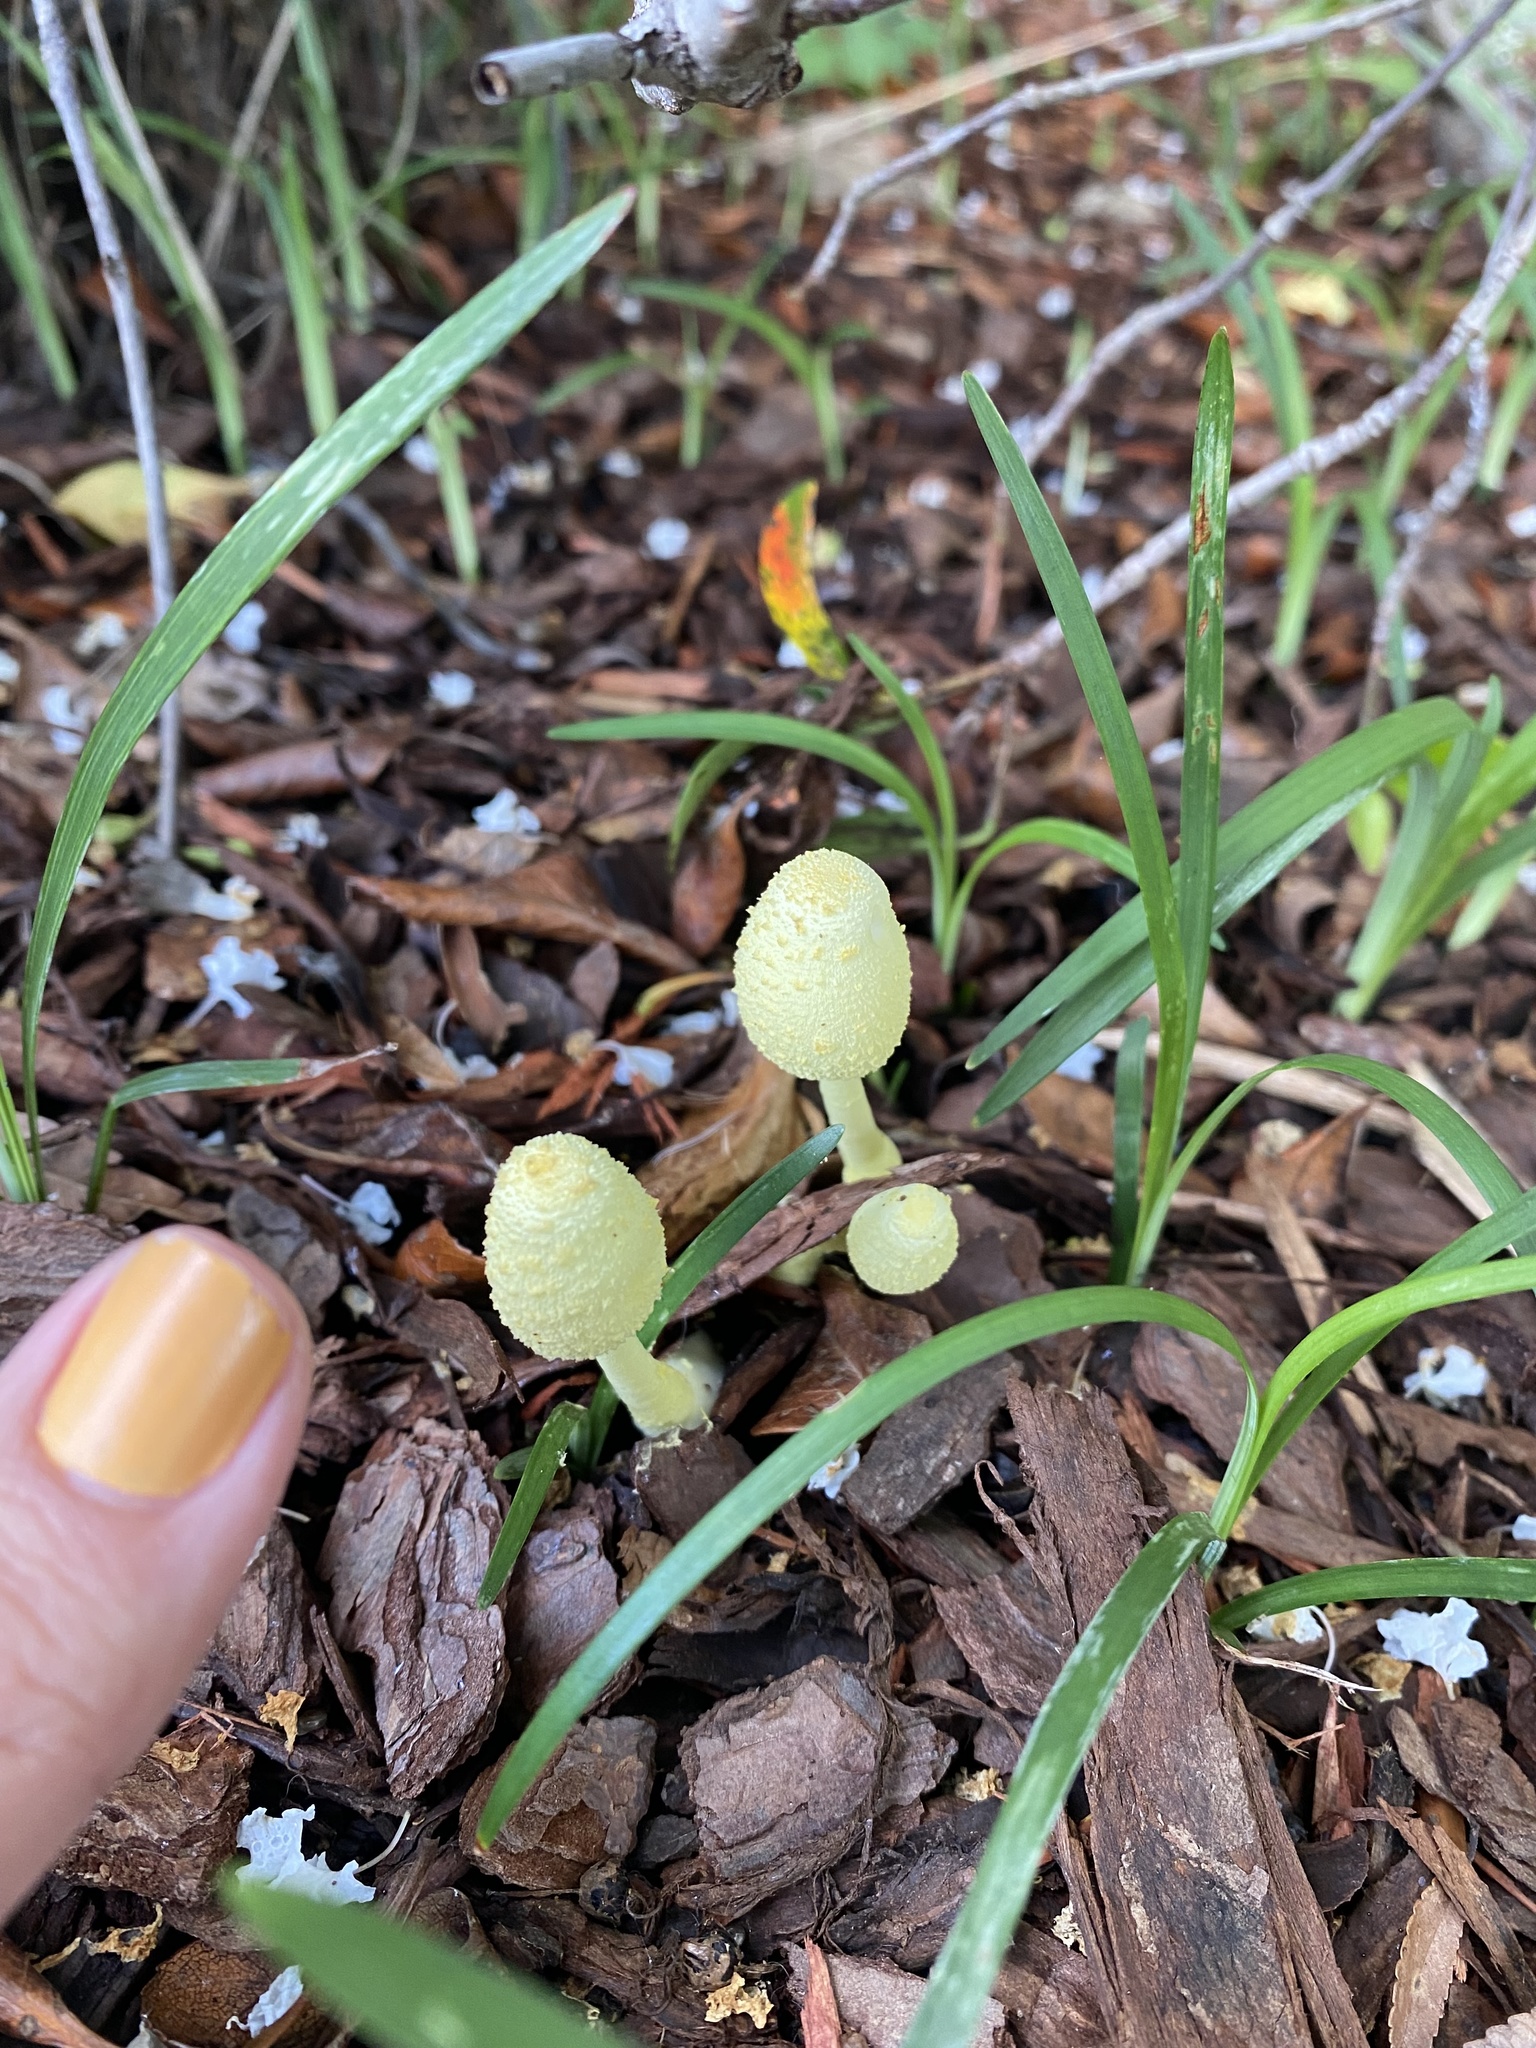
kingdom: Fungi
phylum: Basidiomycota
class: Agaricomycetes
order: Agaricales
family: Agaricaceae
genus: Leucocoprinus
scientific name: Leucocoprinus birnbaumii
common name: Plantpot dapperling
